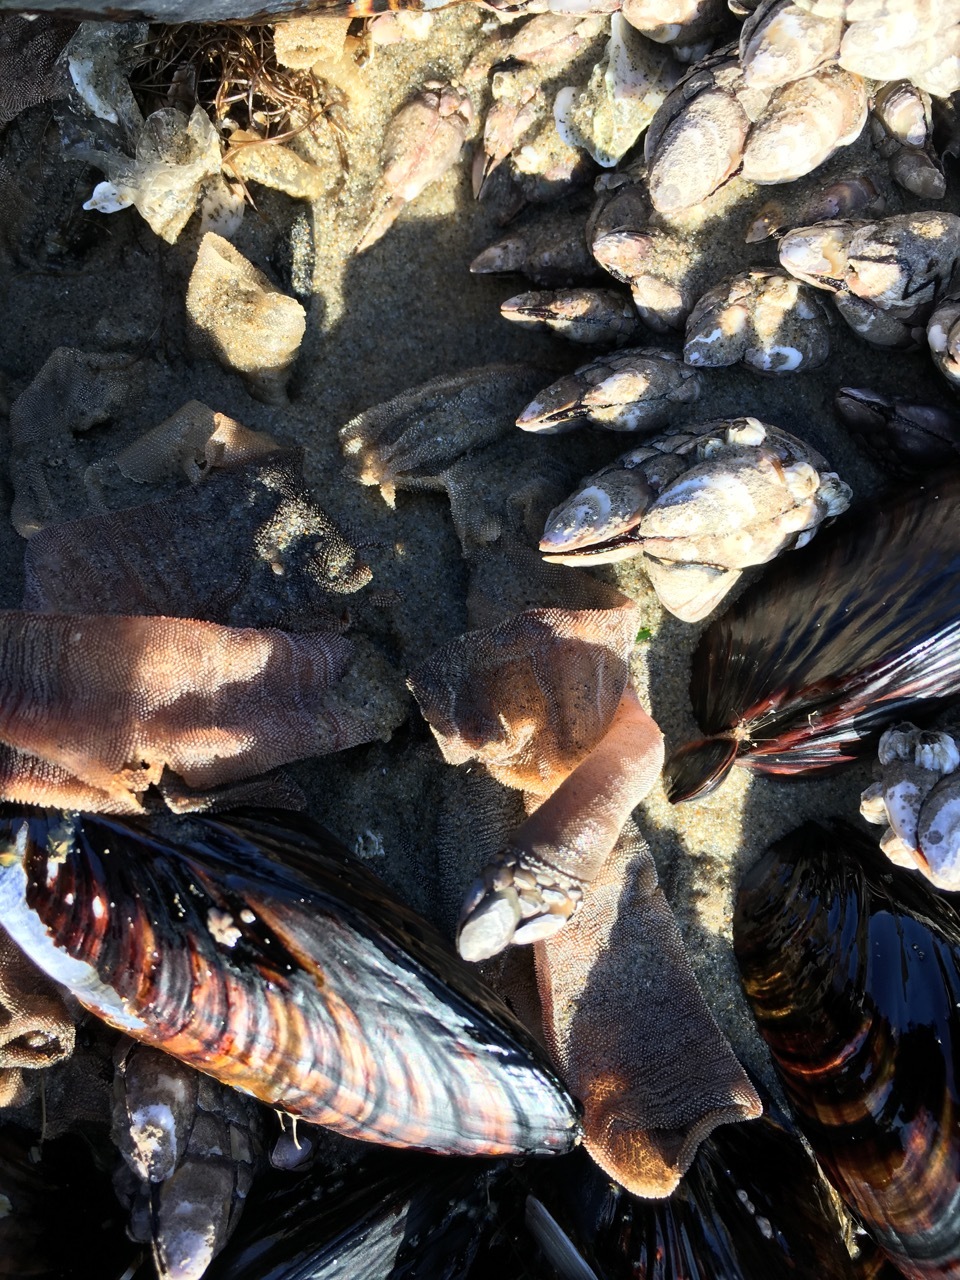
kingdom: Animalia
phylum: Arthropoda
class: Maxillopoda
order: Pedunculata
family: Pollicipedidae
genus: Pollicipes
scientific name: Pollicipes polymerus
